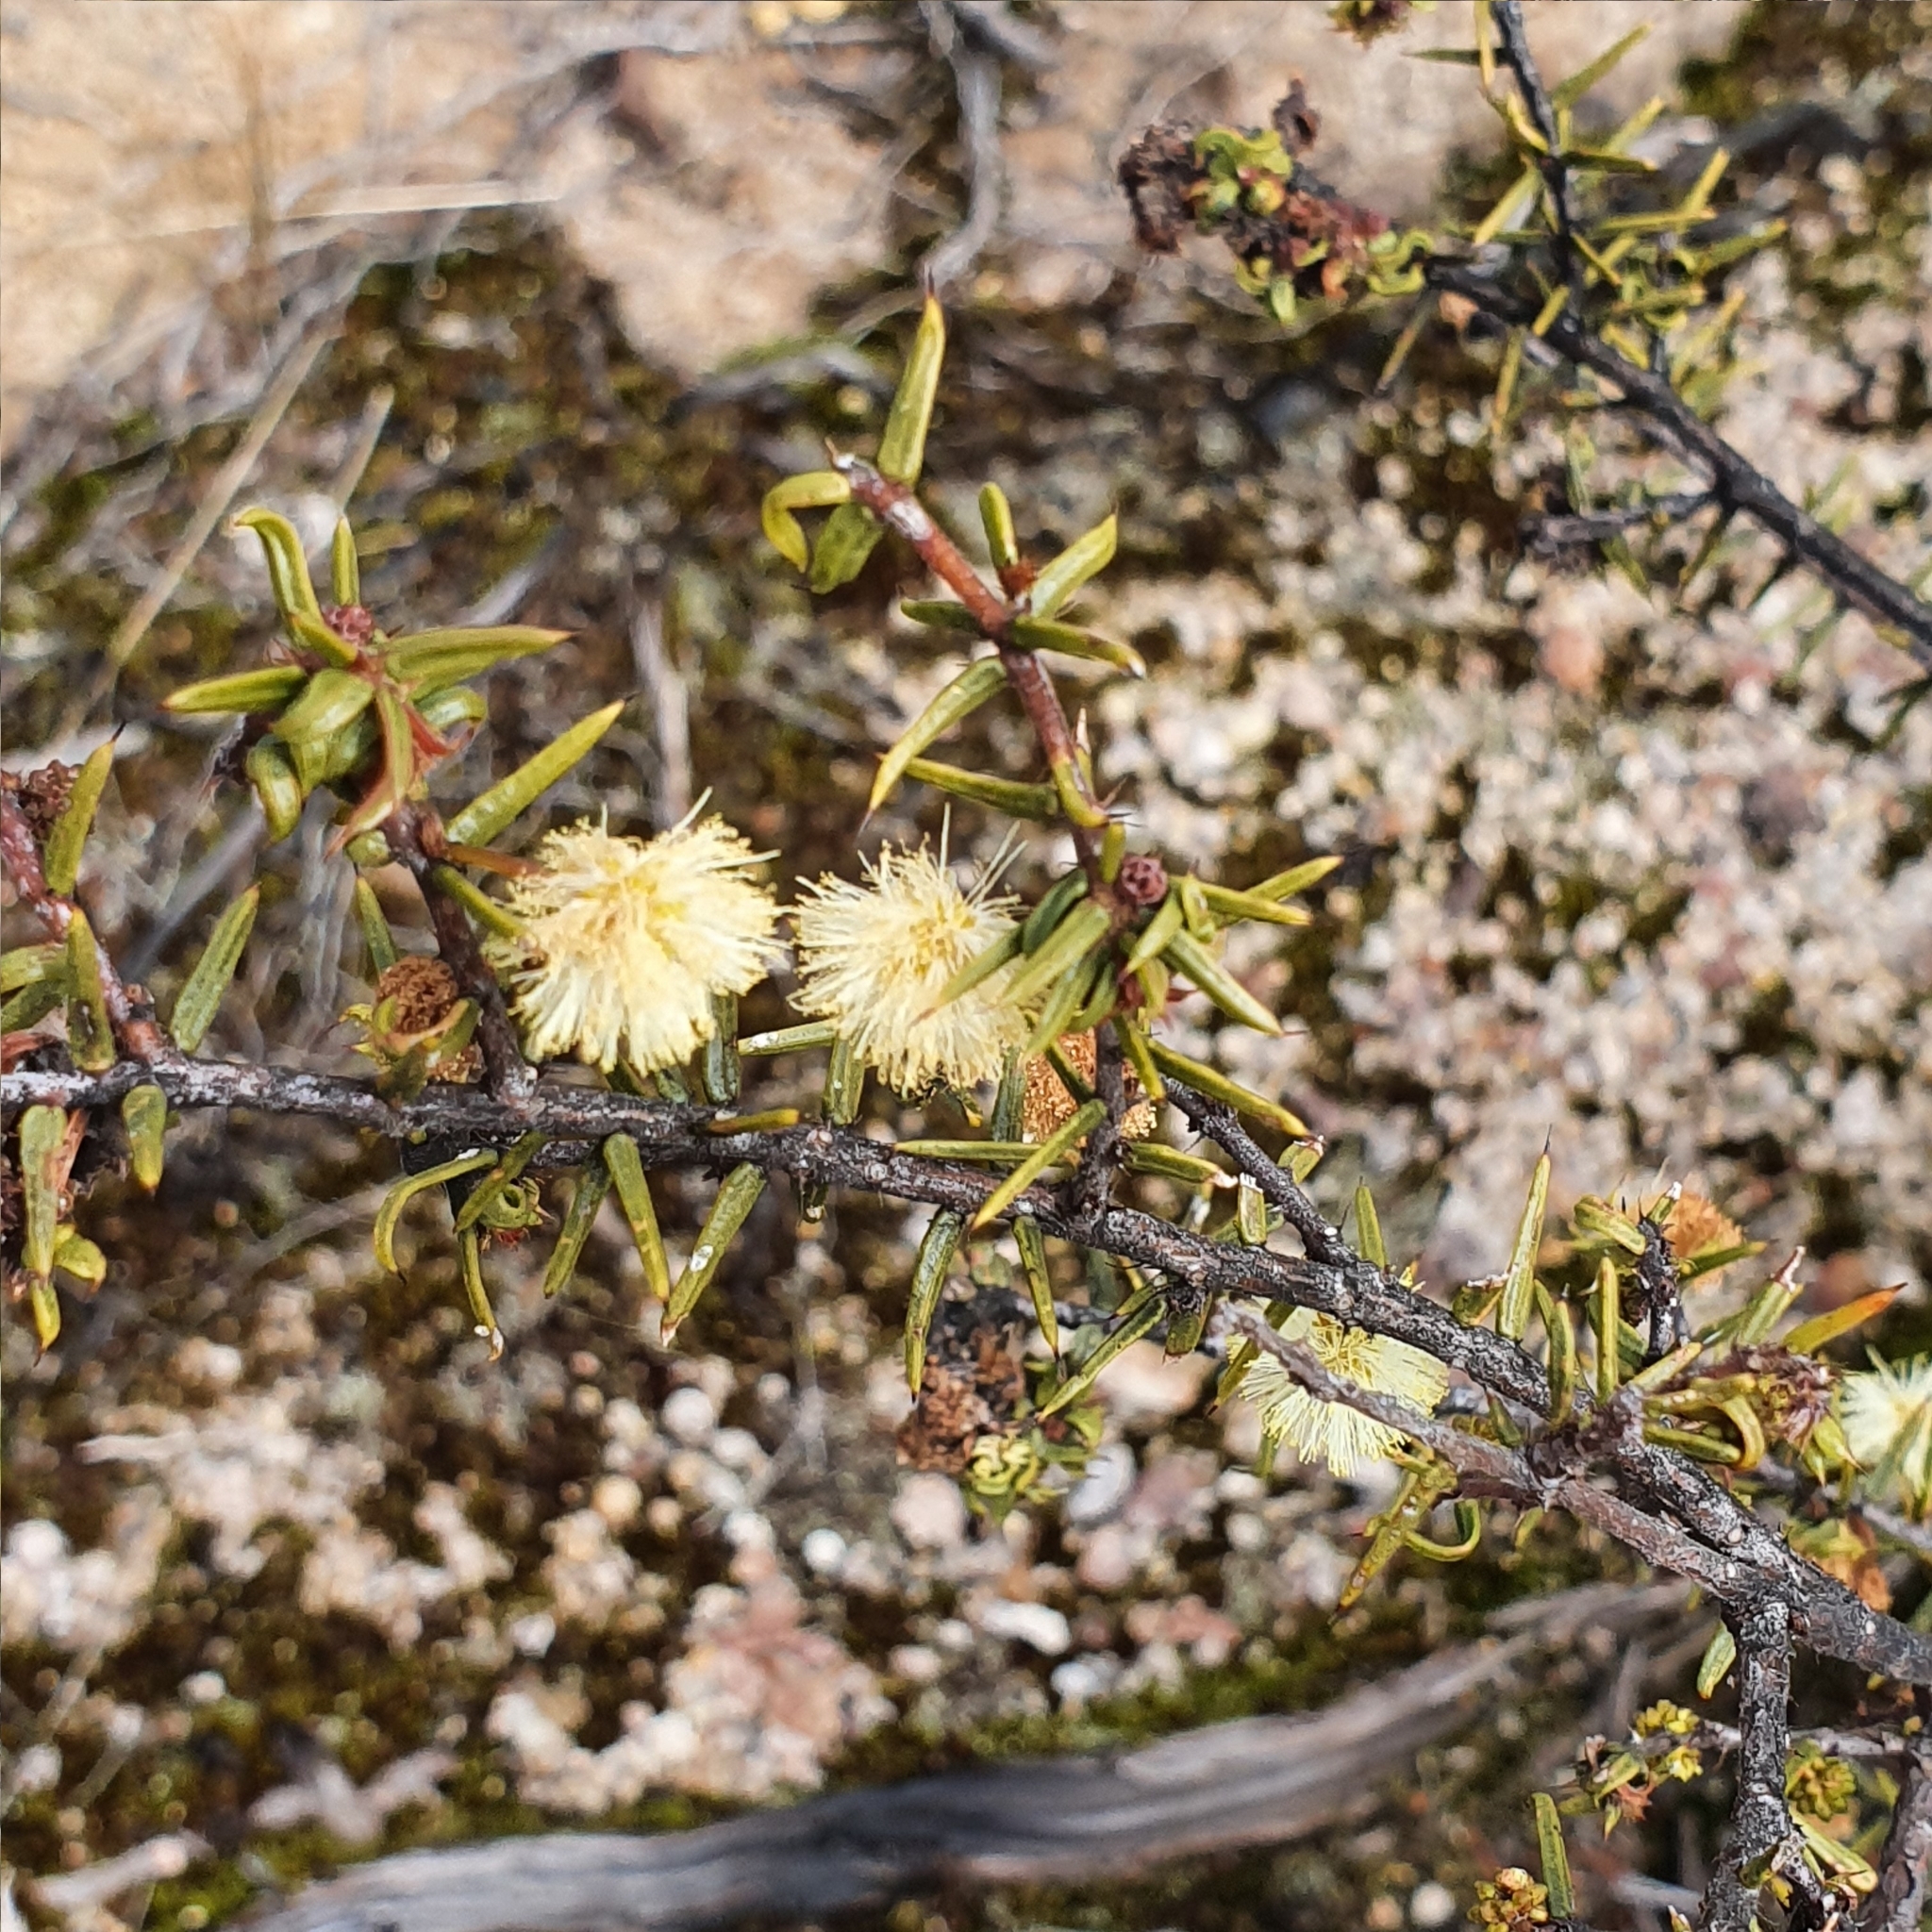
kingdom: Plantae
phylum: Tracheophyta
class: Magnoliopsida
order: Fabales
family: Fabaceae
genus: Acacia
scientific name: Acacia ulicifolia
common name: Juniper wattle
